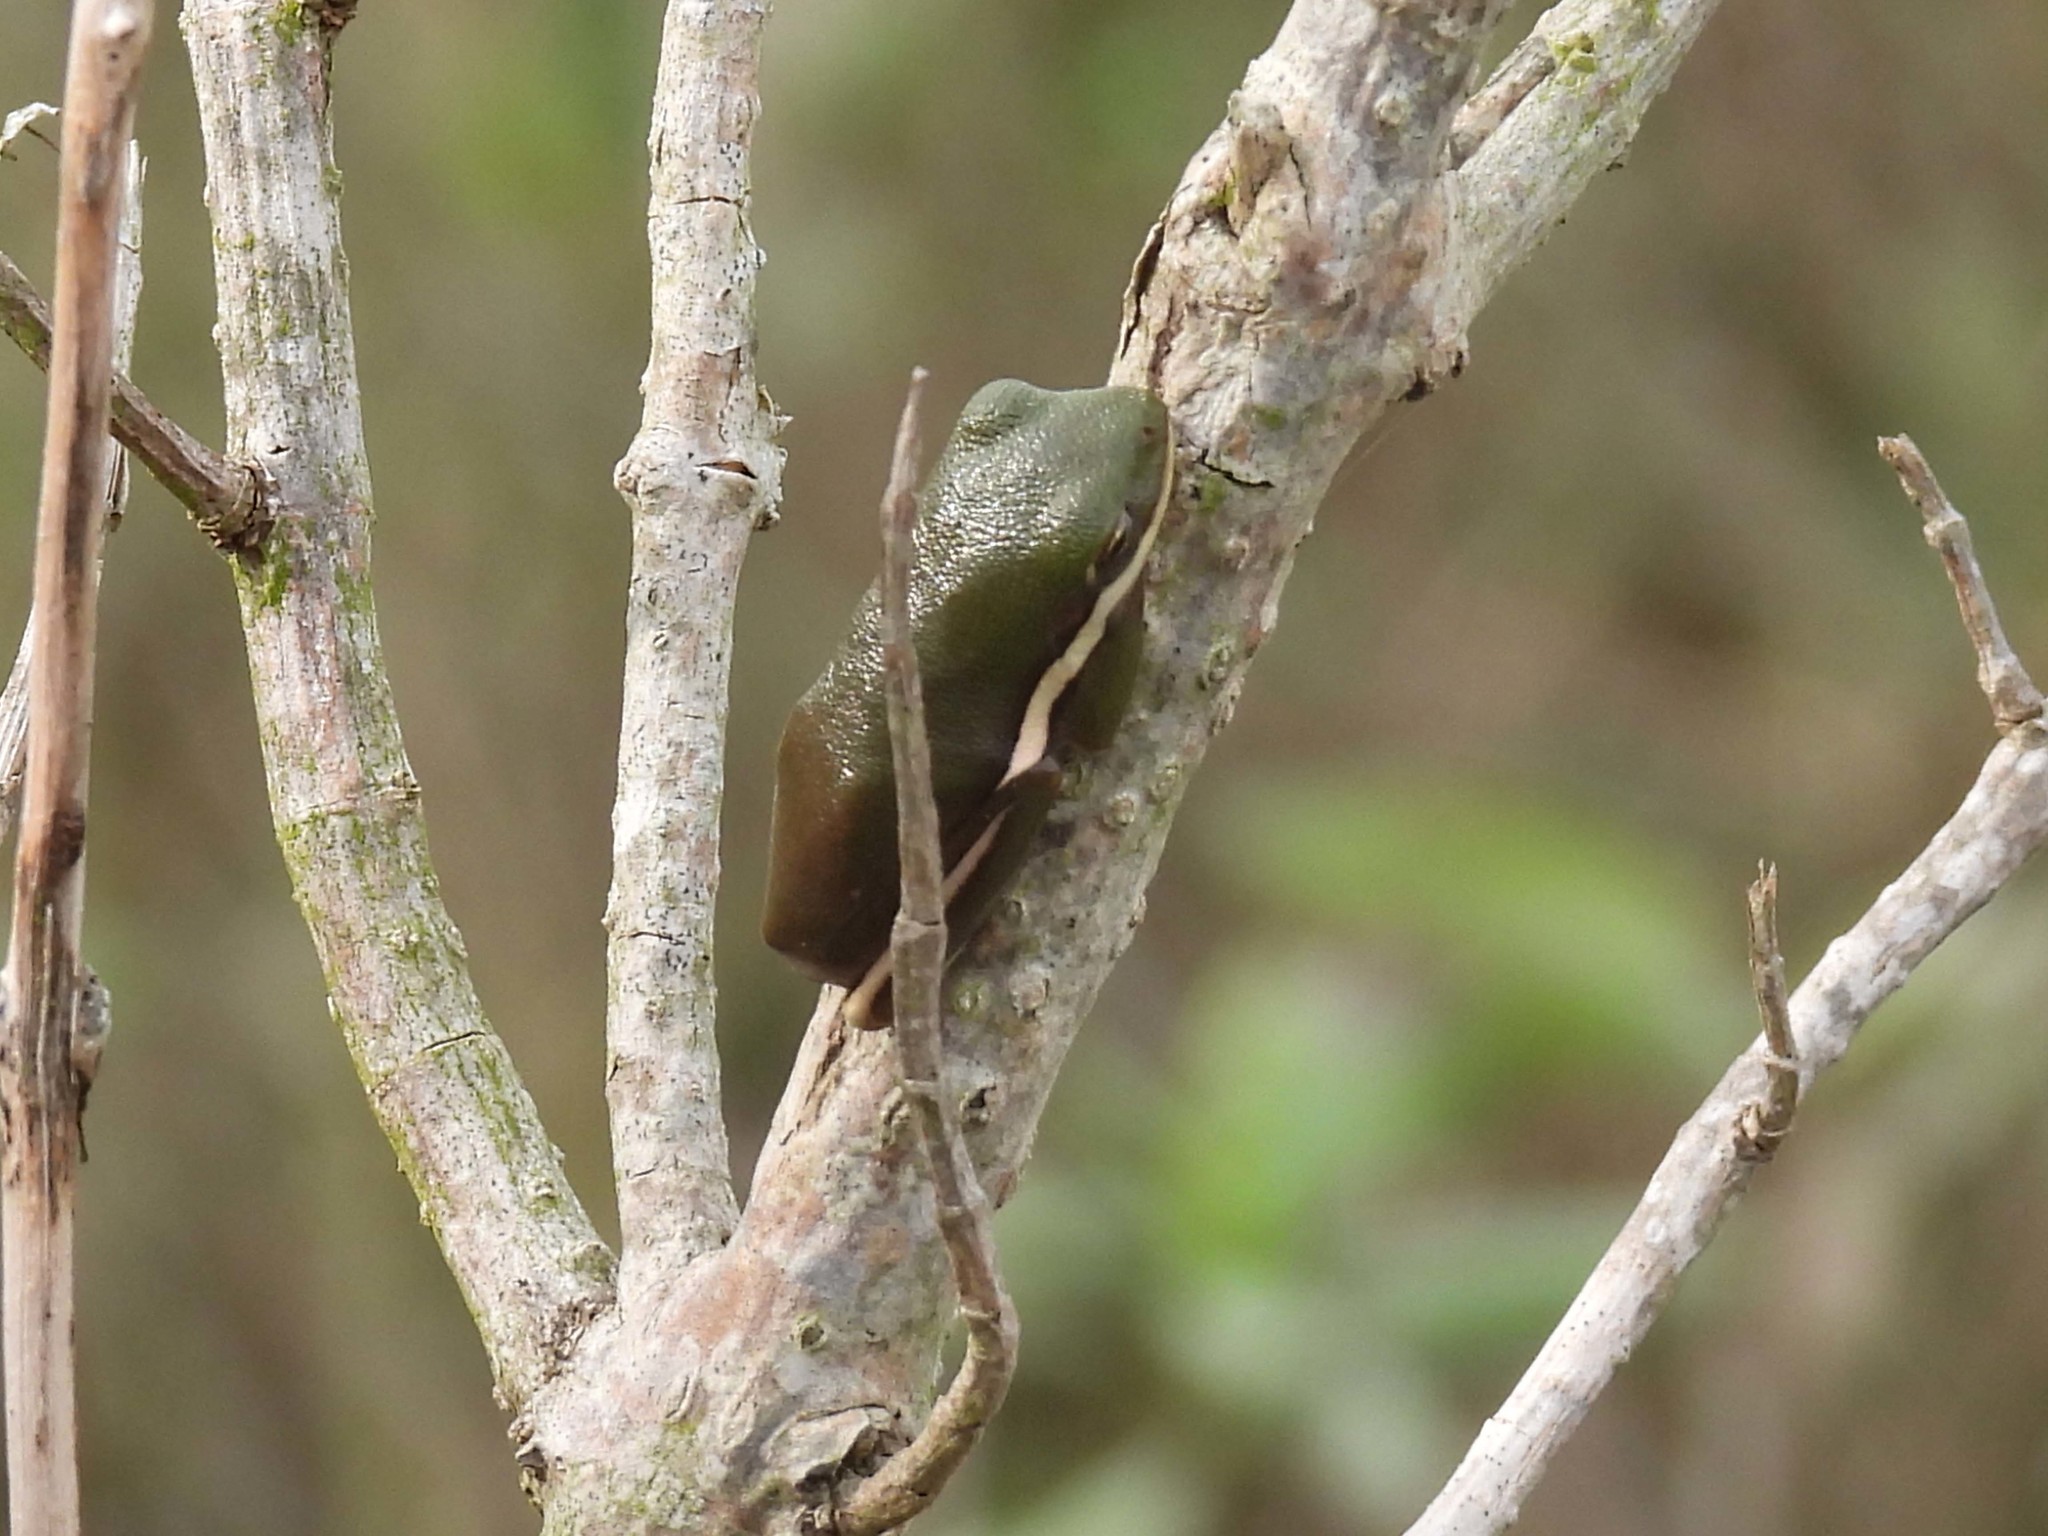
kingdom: Animalia
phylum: Chordata
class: Amphibia
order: Anura
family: Hylidae
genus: Dryophytes
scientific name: Dryophytes cinereus
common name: Green treefrog
